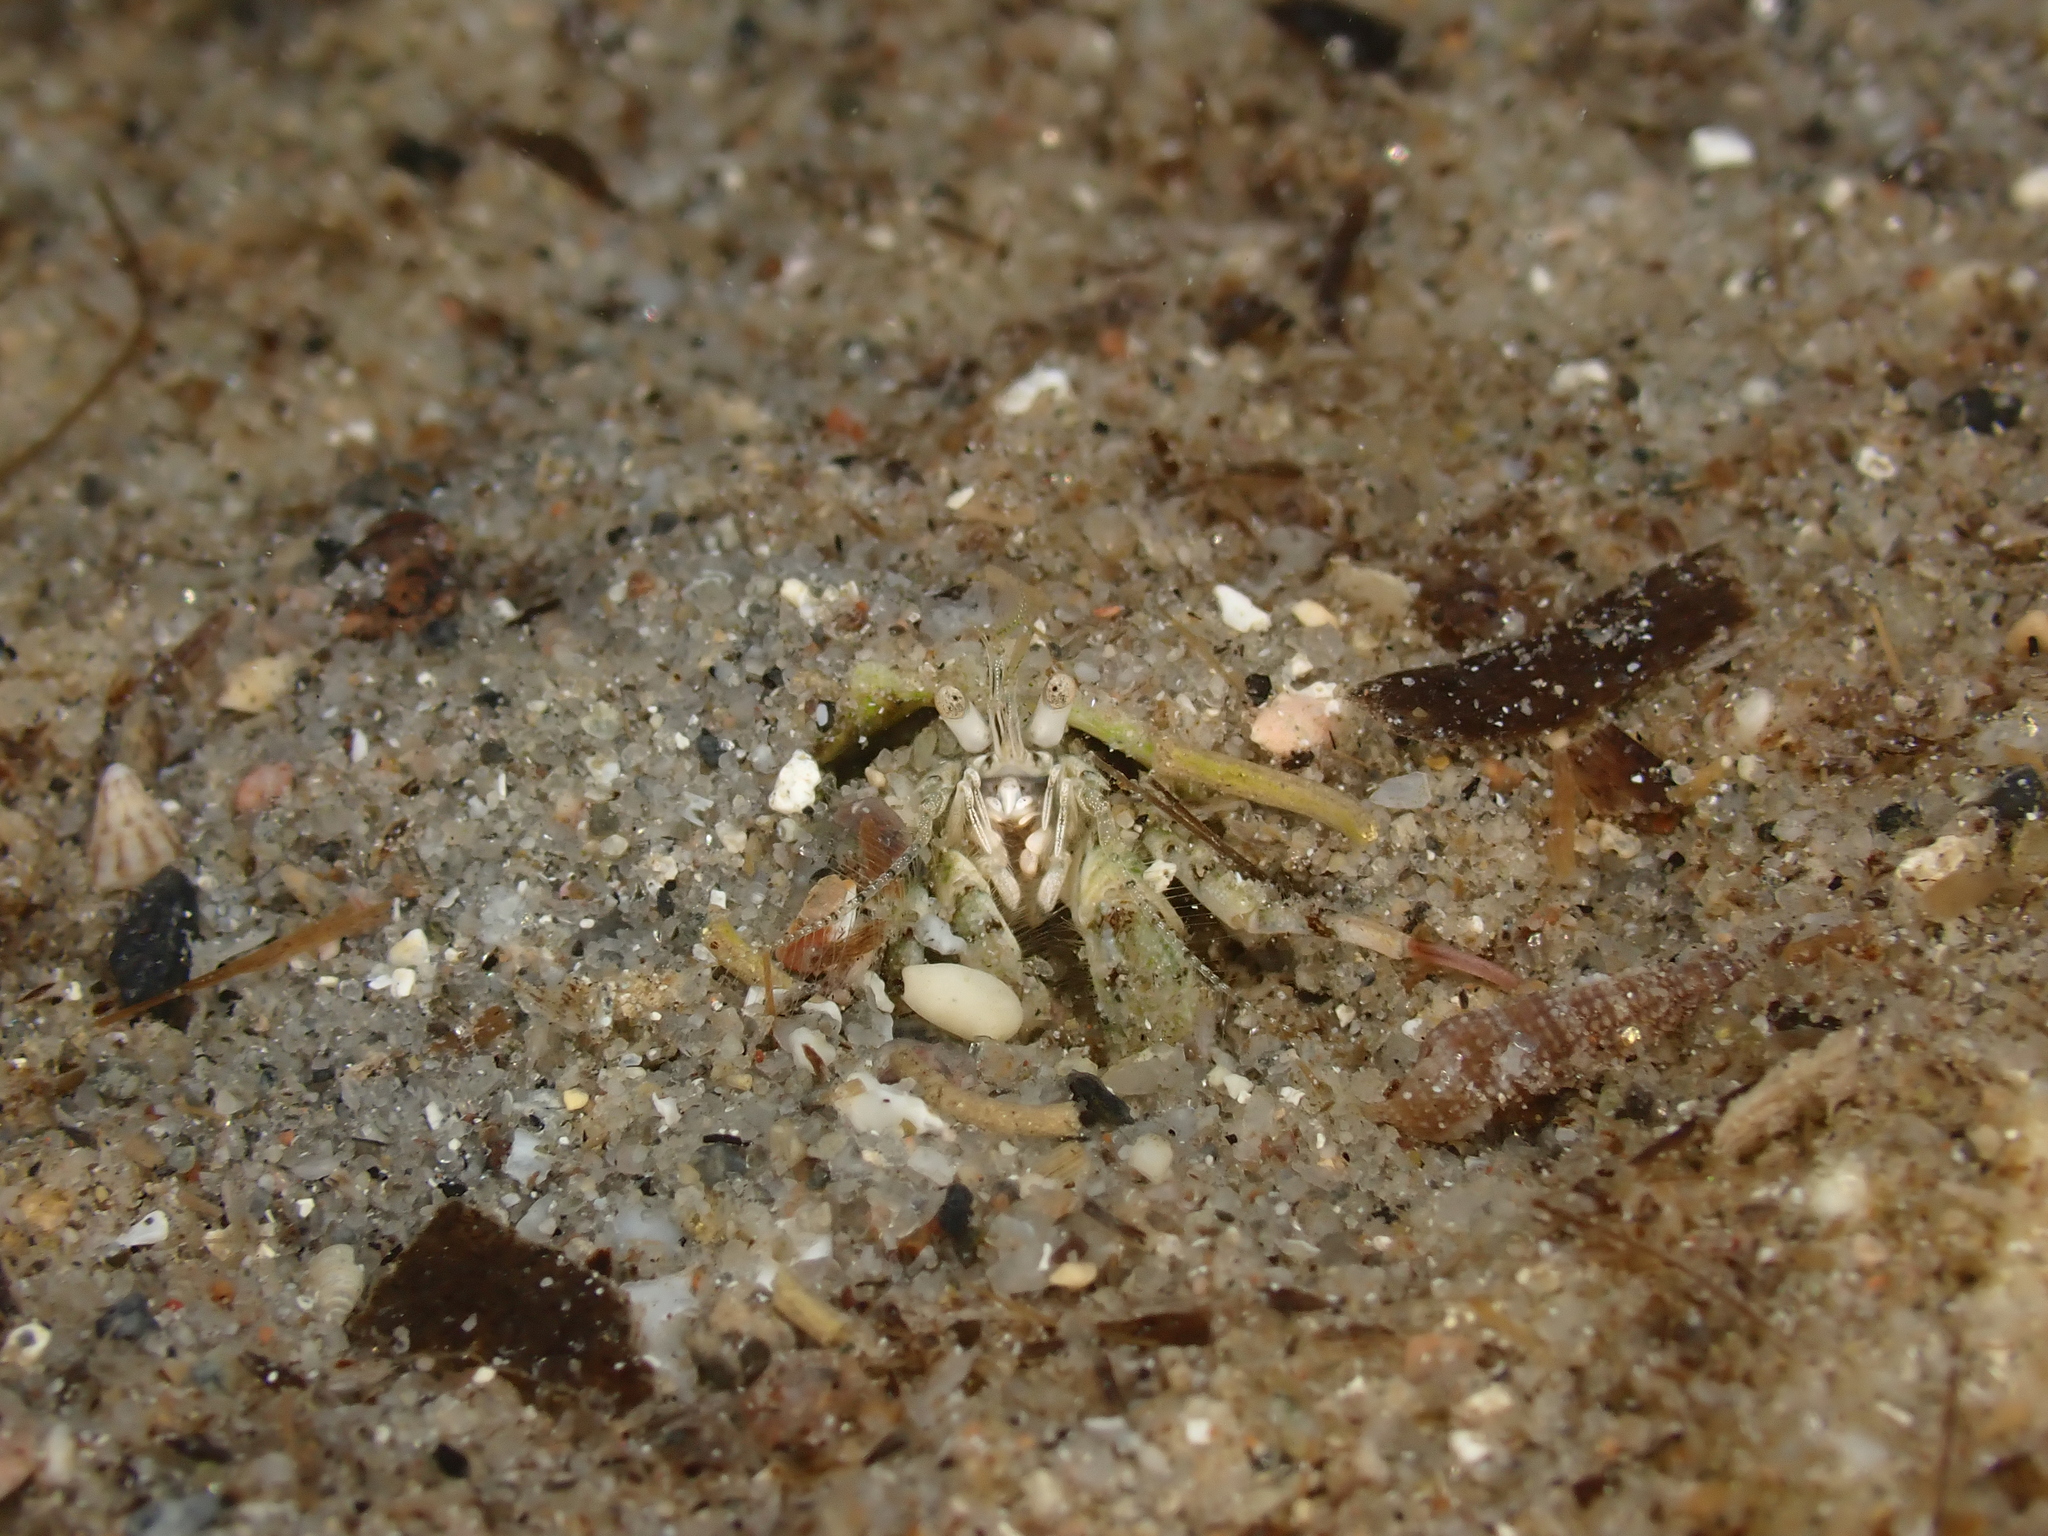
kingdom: Animalia
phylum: Arthropoda
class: Malacostraca
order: Decapoda
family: Diogenidae
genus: Diogenes
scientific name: Diogenes pugilator
